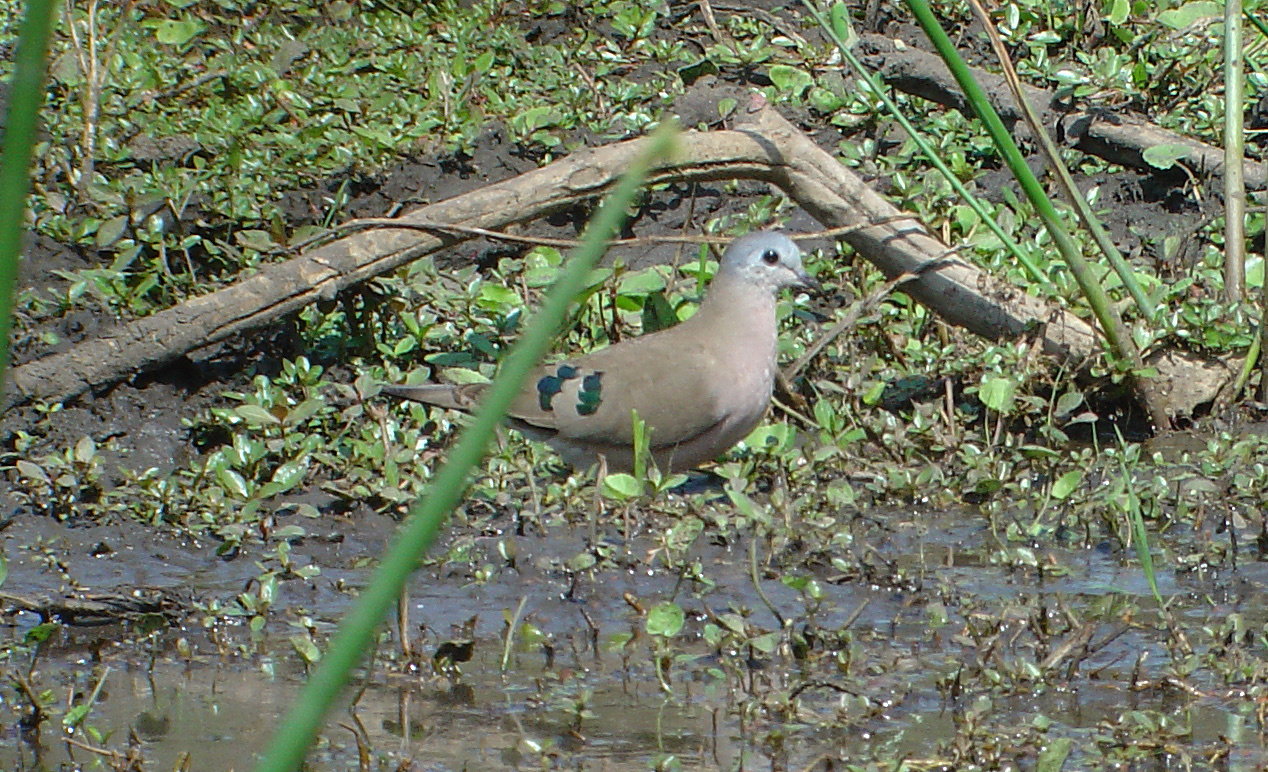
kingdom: Animalia
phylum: Chordata
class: Aves
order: Columbiformes
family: Columbidae
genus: Turtur
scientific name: Turtur chalcospilos
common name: Emerald-spotted wood dove
